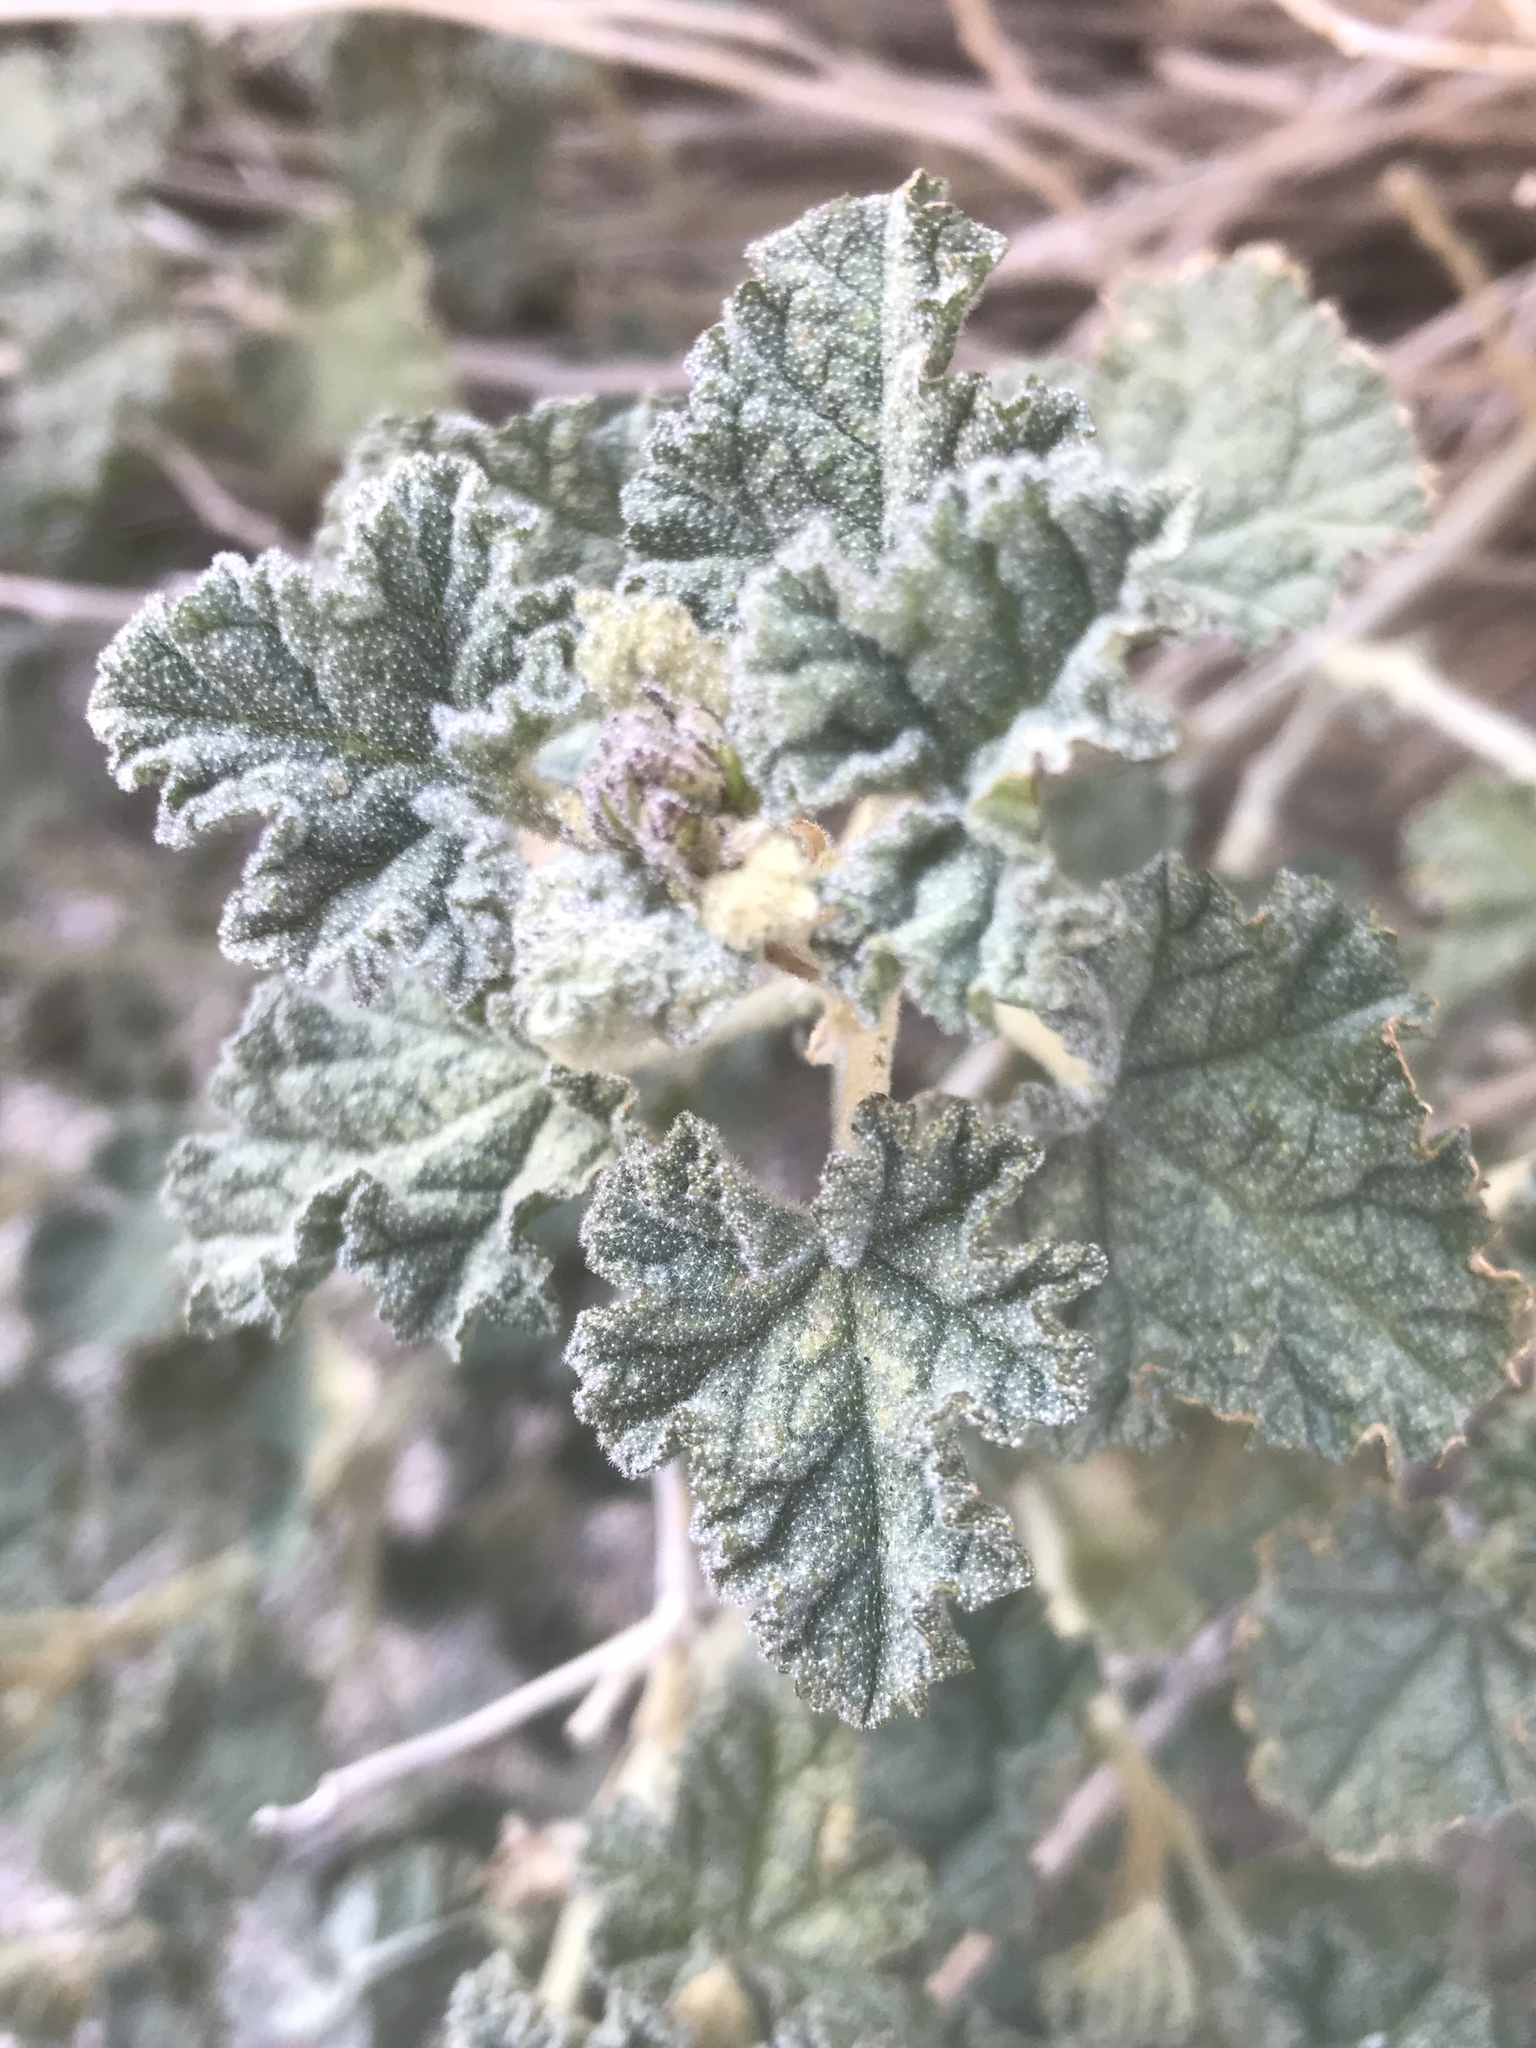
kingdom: Plantae
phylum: Tracheophyta
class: Magnoliopsida
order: Malvales
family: Malvaceae
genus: Sphaeralcea
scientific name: Sphaeralcea ambigua
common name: Apricot globe-mallow
